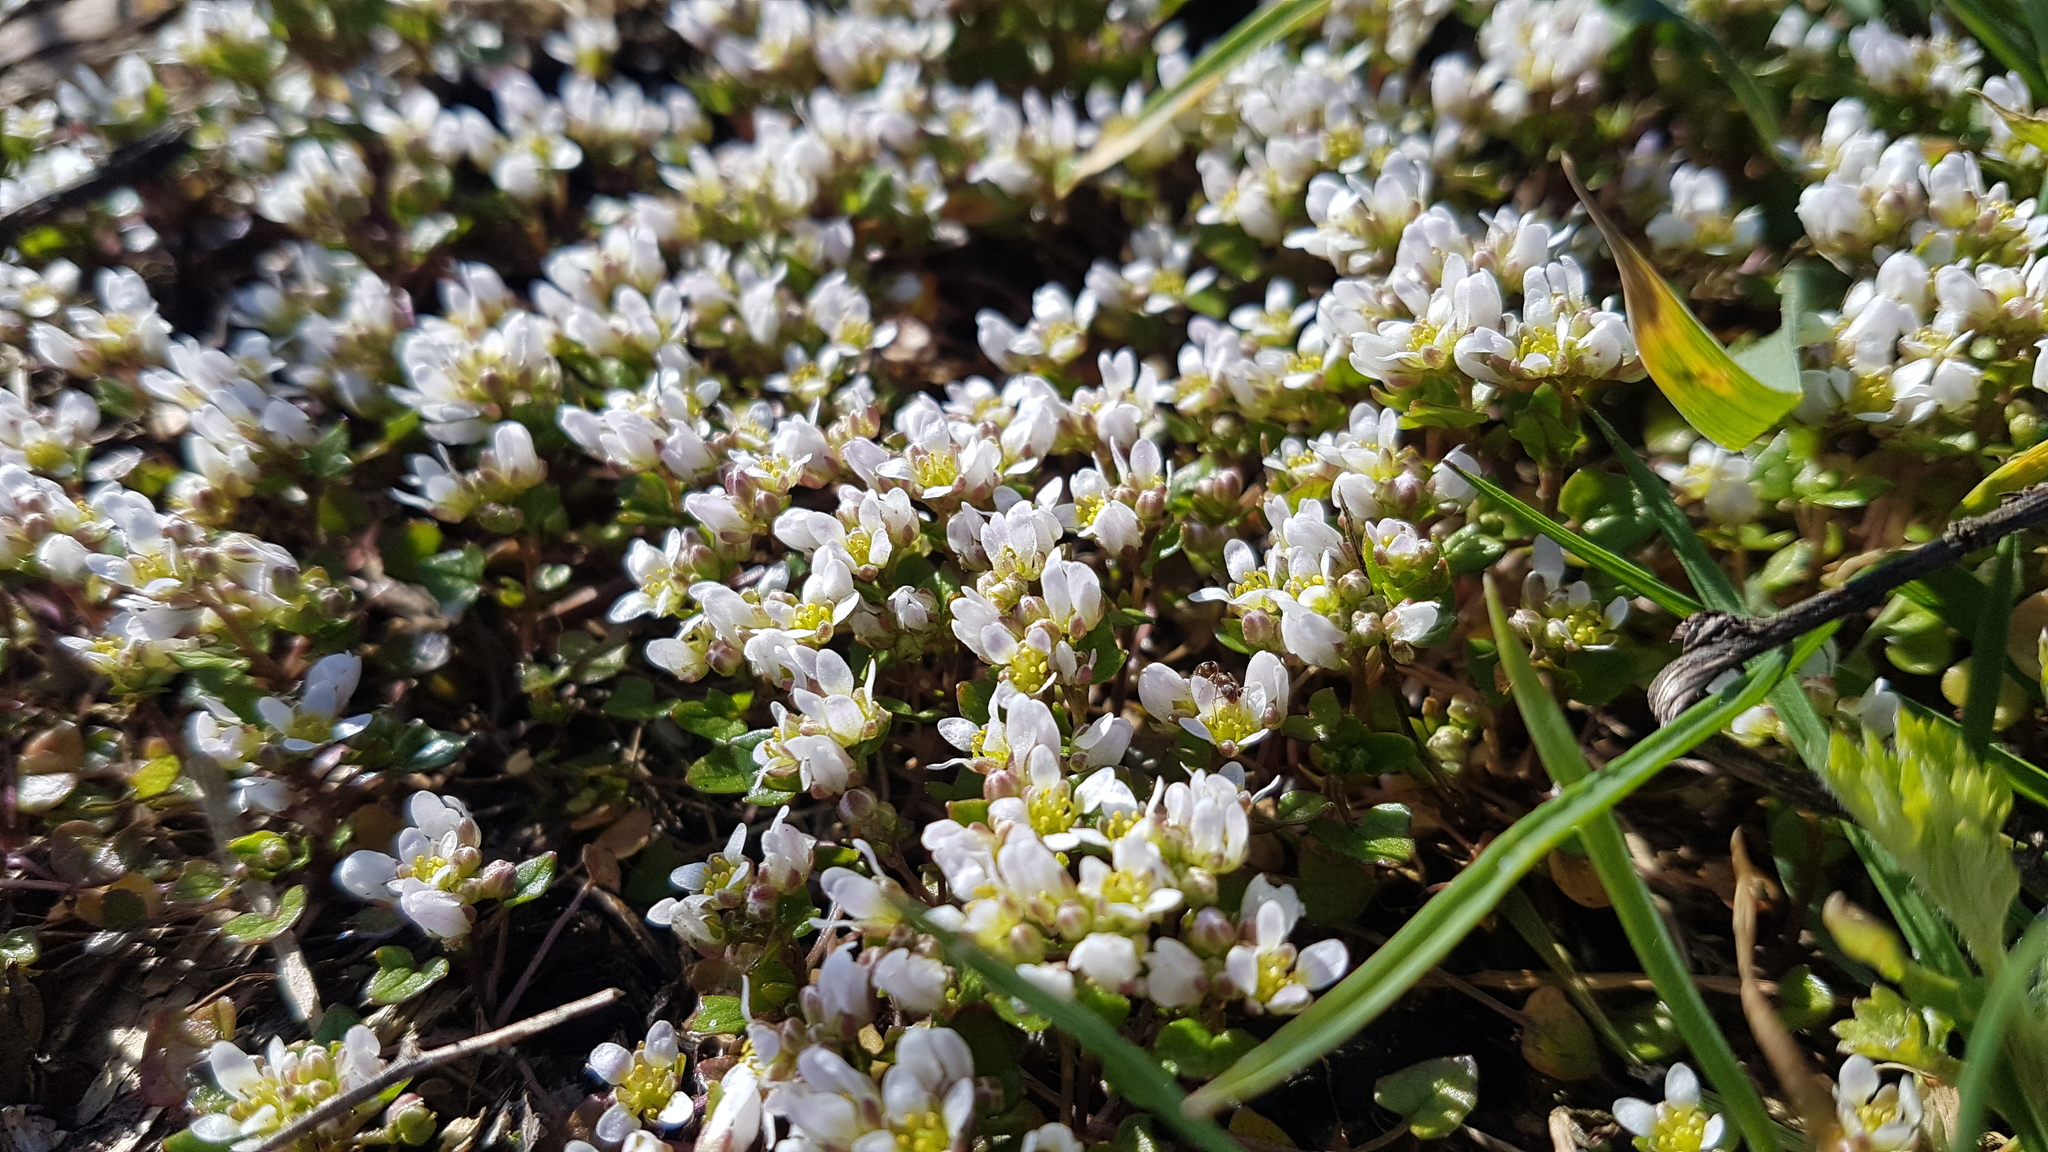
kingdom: Plantae
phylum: Tracheophyta
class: Magnoliopsida
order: Brassicales
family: Brassicaceae
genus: Cochlearia
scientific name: Cochlearia danica
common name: Early scurvygrass
